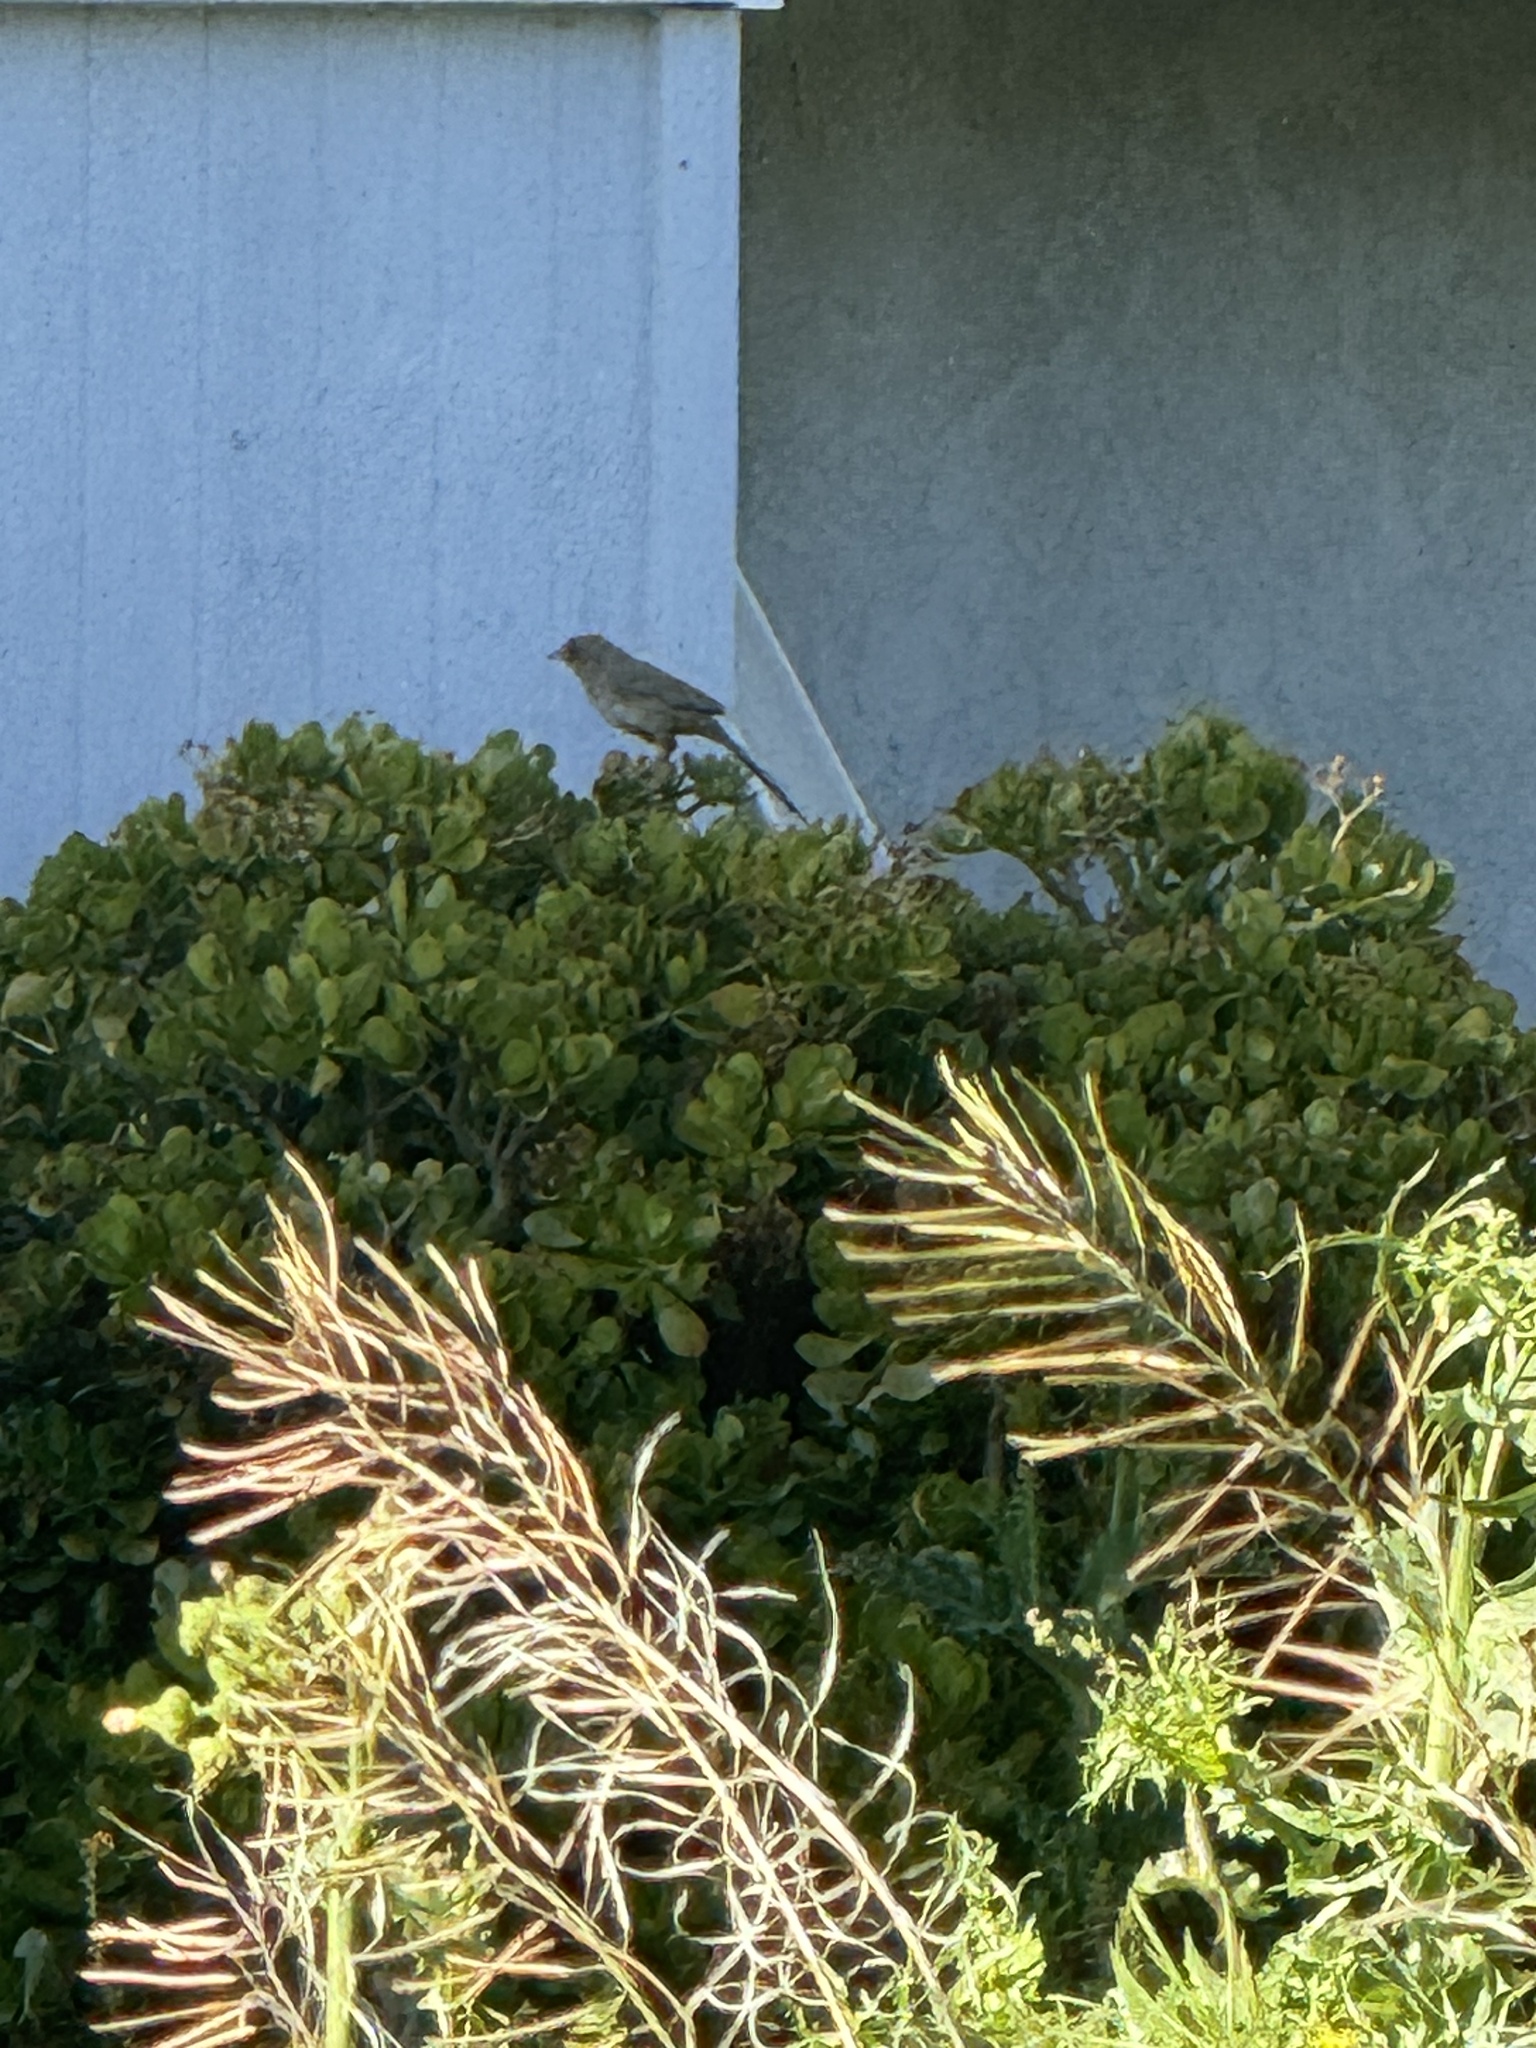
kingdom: Animalia
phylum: Chordata
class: Aves
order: Passeriformes
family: Passerellidae
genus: Melozone
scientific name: Melozone crissalis
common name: California towhee
